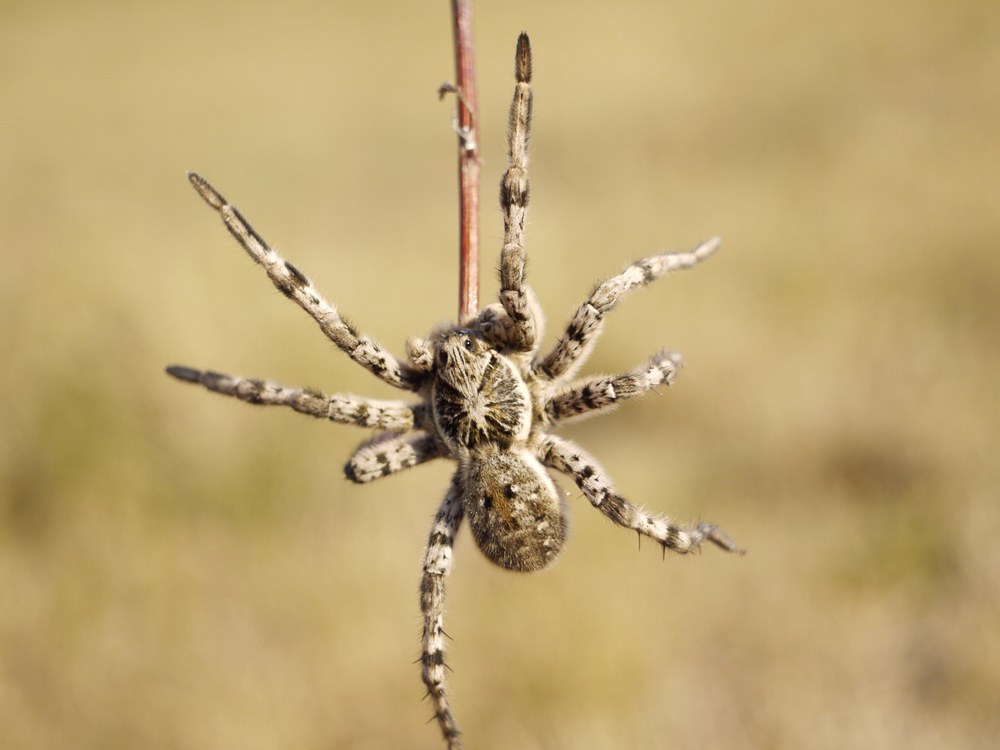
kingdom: Animalia
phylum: Arthropoda
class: Arachnida
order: Araneae
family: Lycosidae
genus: Lycosa
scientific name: Lycosa singoriensis
